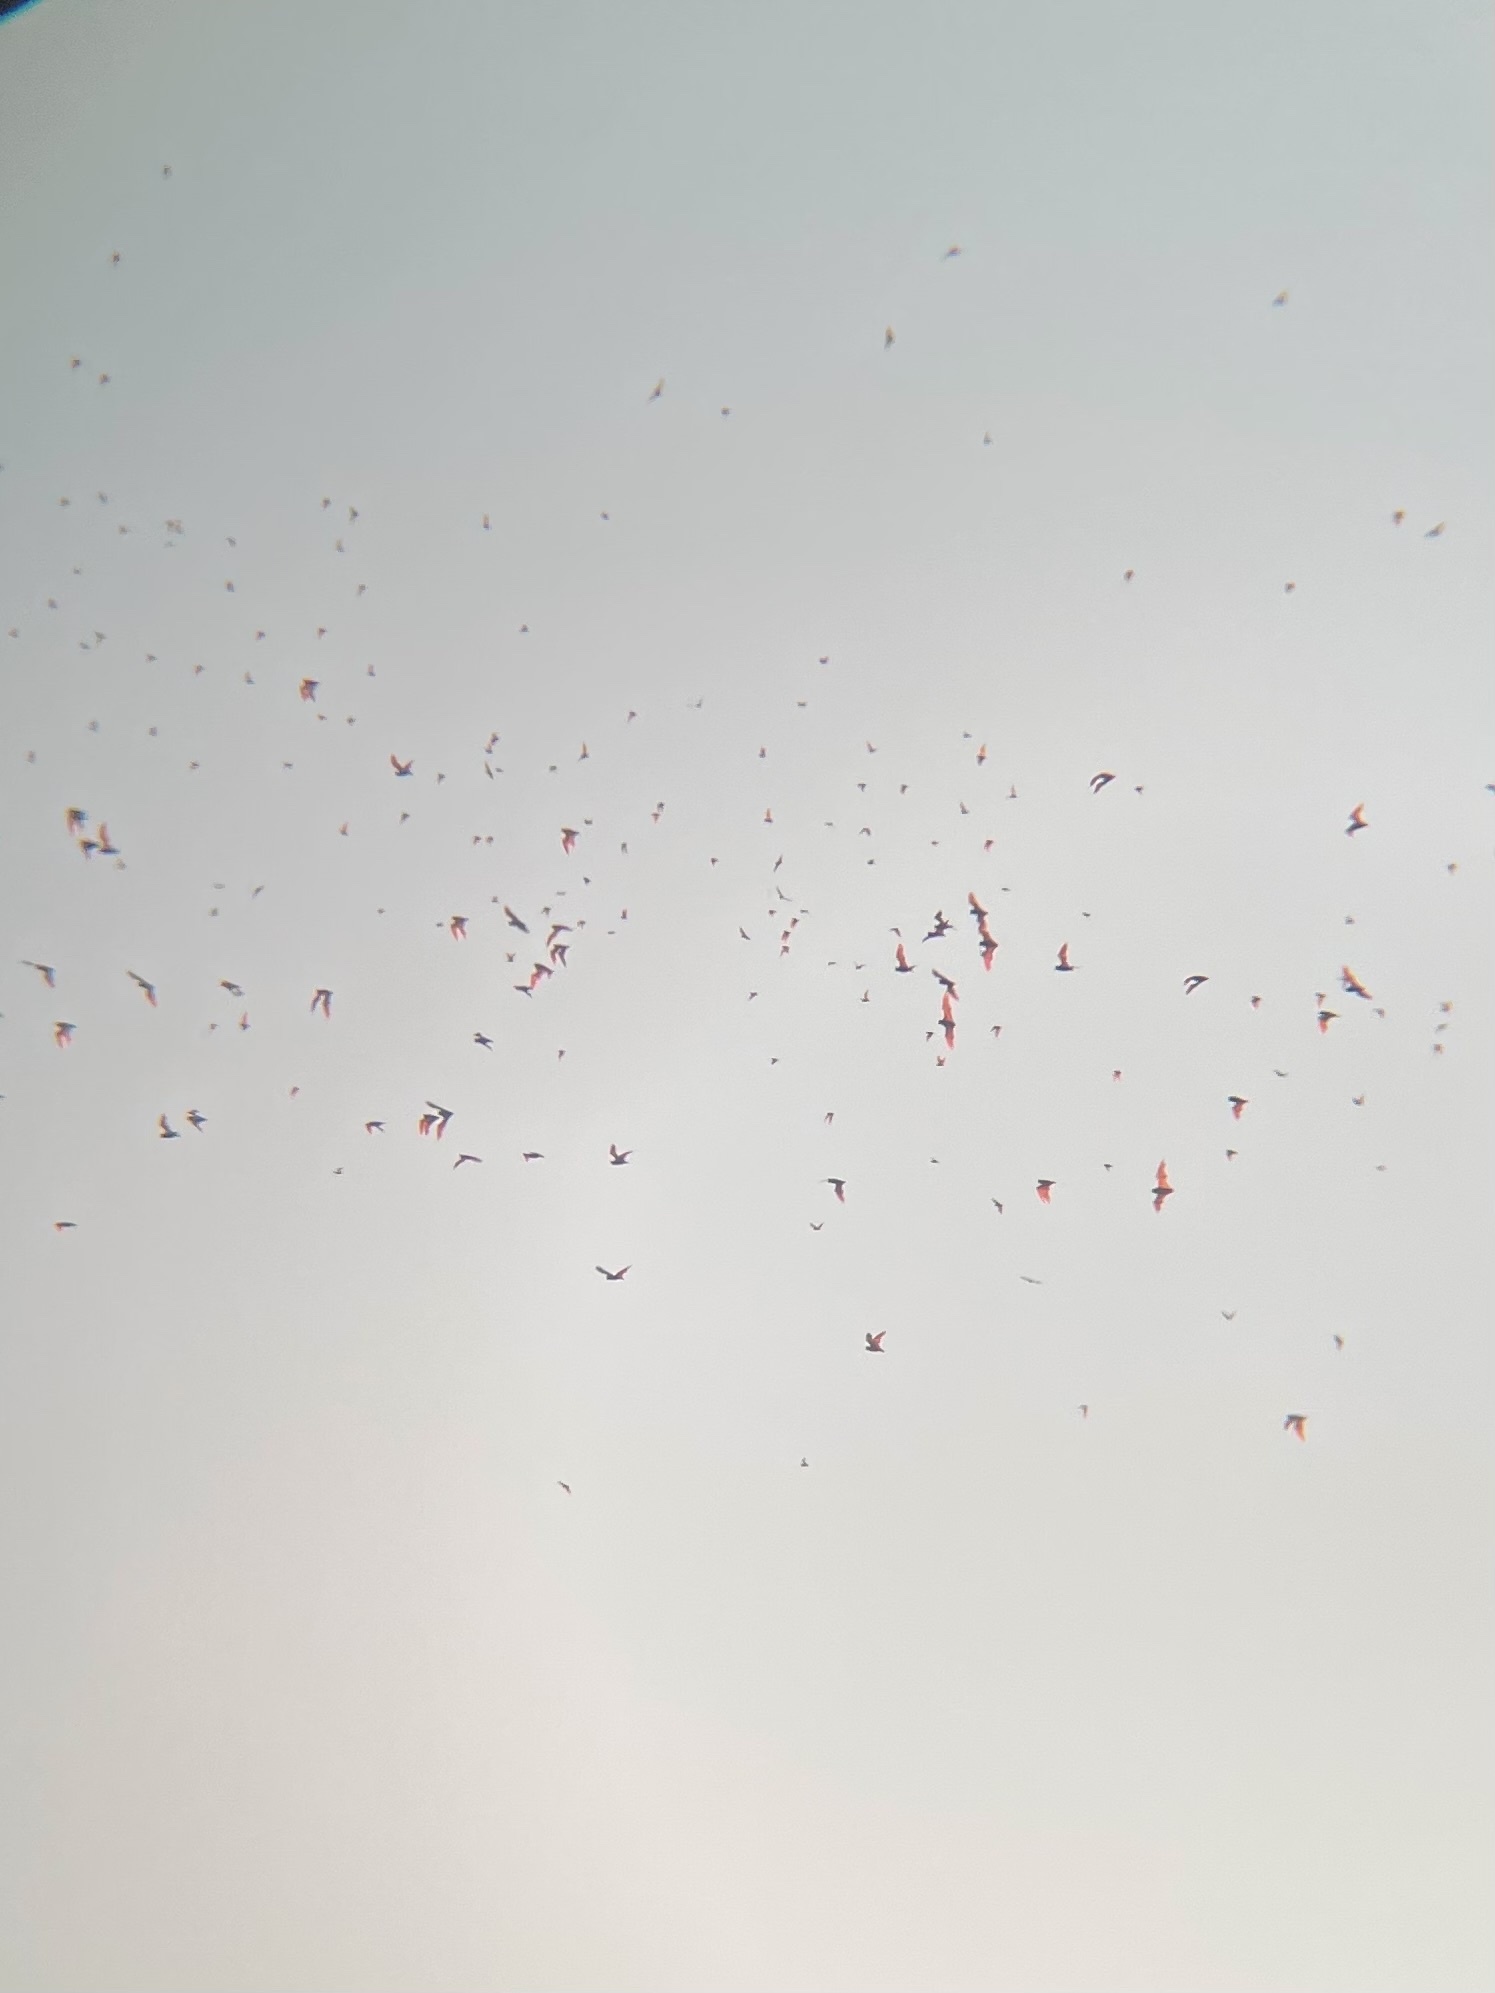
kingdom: Animalia
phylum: Chordata
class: Mammalia
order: Chiroptera
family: Molossidae
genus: Tadarida
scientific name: Tadarida brasiliensis
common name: Mexican free-tailed bat
